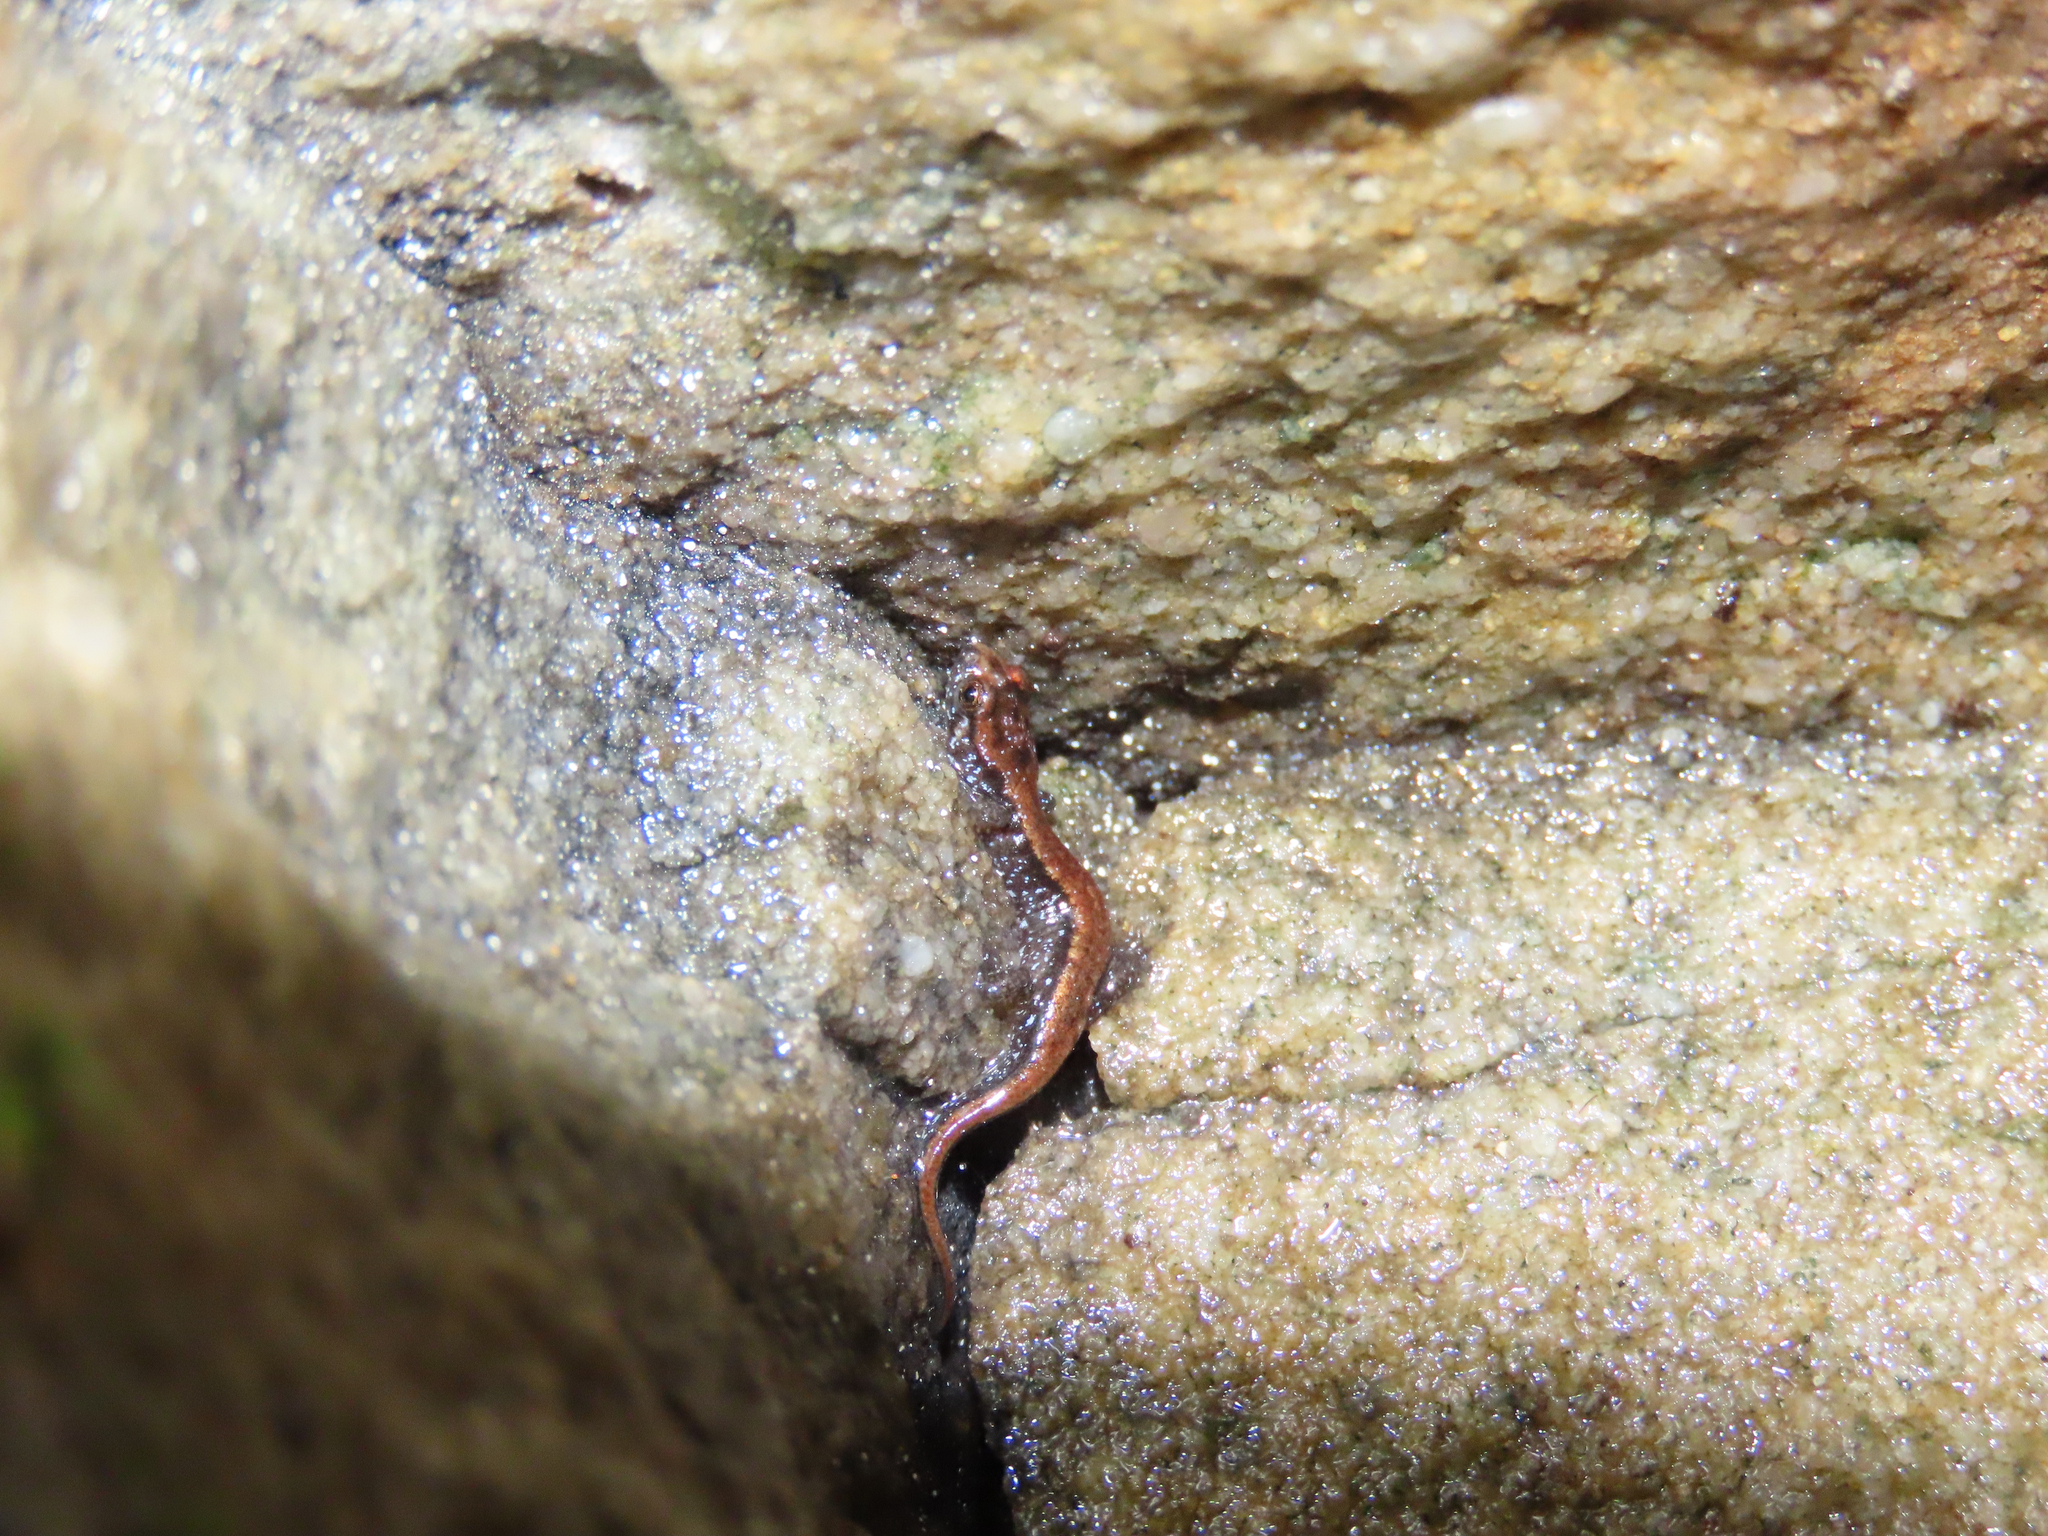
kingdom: Animalia
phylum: Chordata
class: Amphibia
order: Caudata
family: Plethodontidae
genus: Desmognathus
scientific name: Desmognathus ochrophaeus
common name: Allegheny mountain dusky salamander
